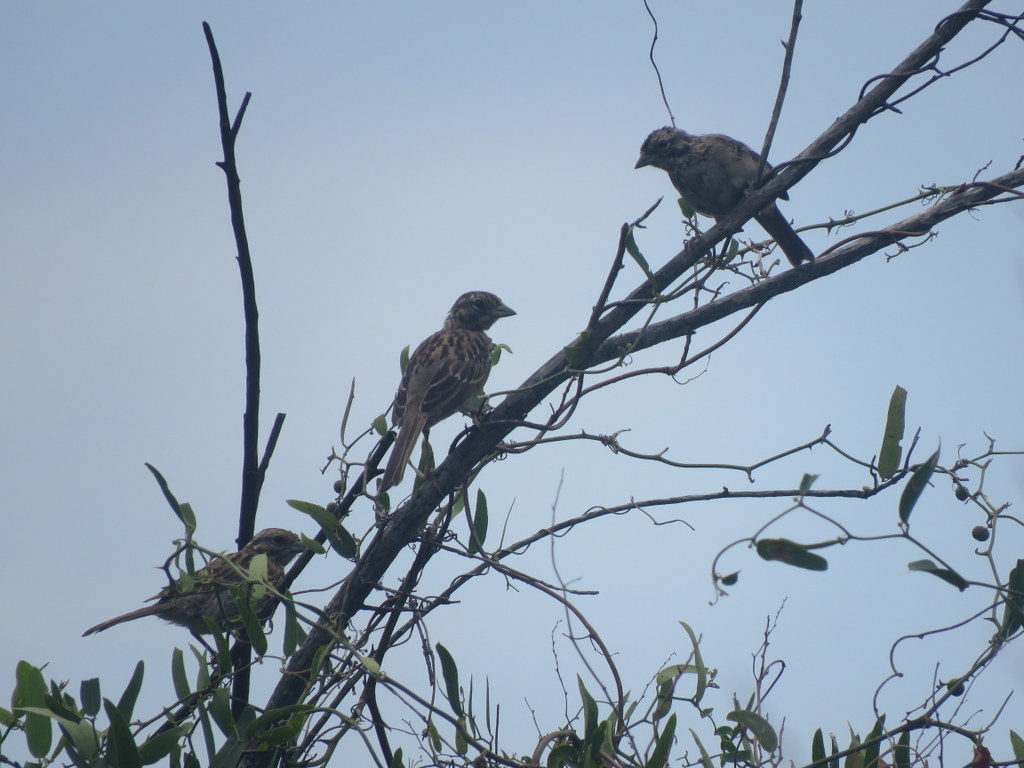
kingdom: Animalia
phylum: Chordata
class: Aves
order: Passeriformes
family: Passerellidae
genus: Zonotrichia
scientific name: Zonotrichia capensis
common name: Rufous-collared sparrow
